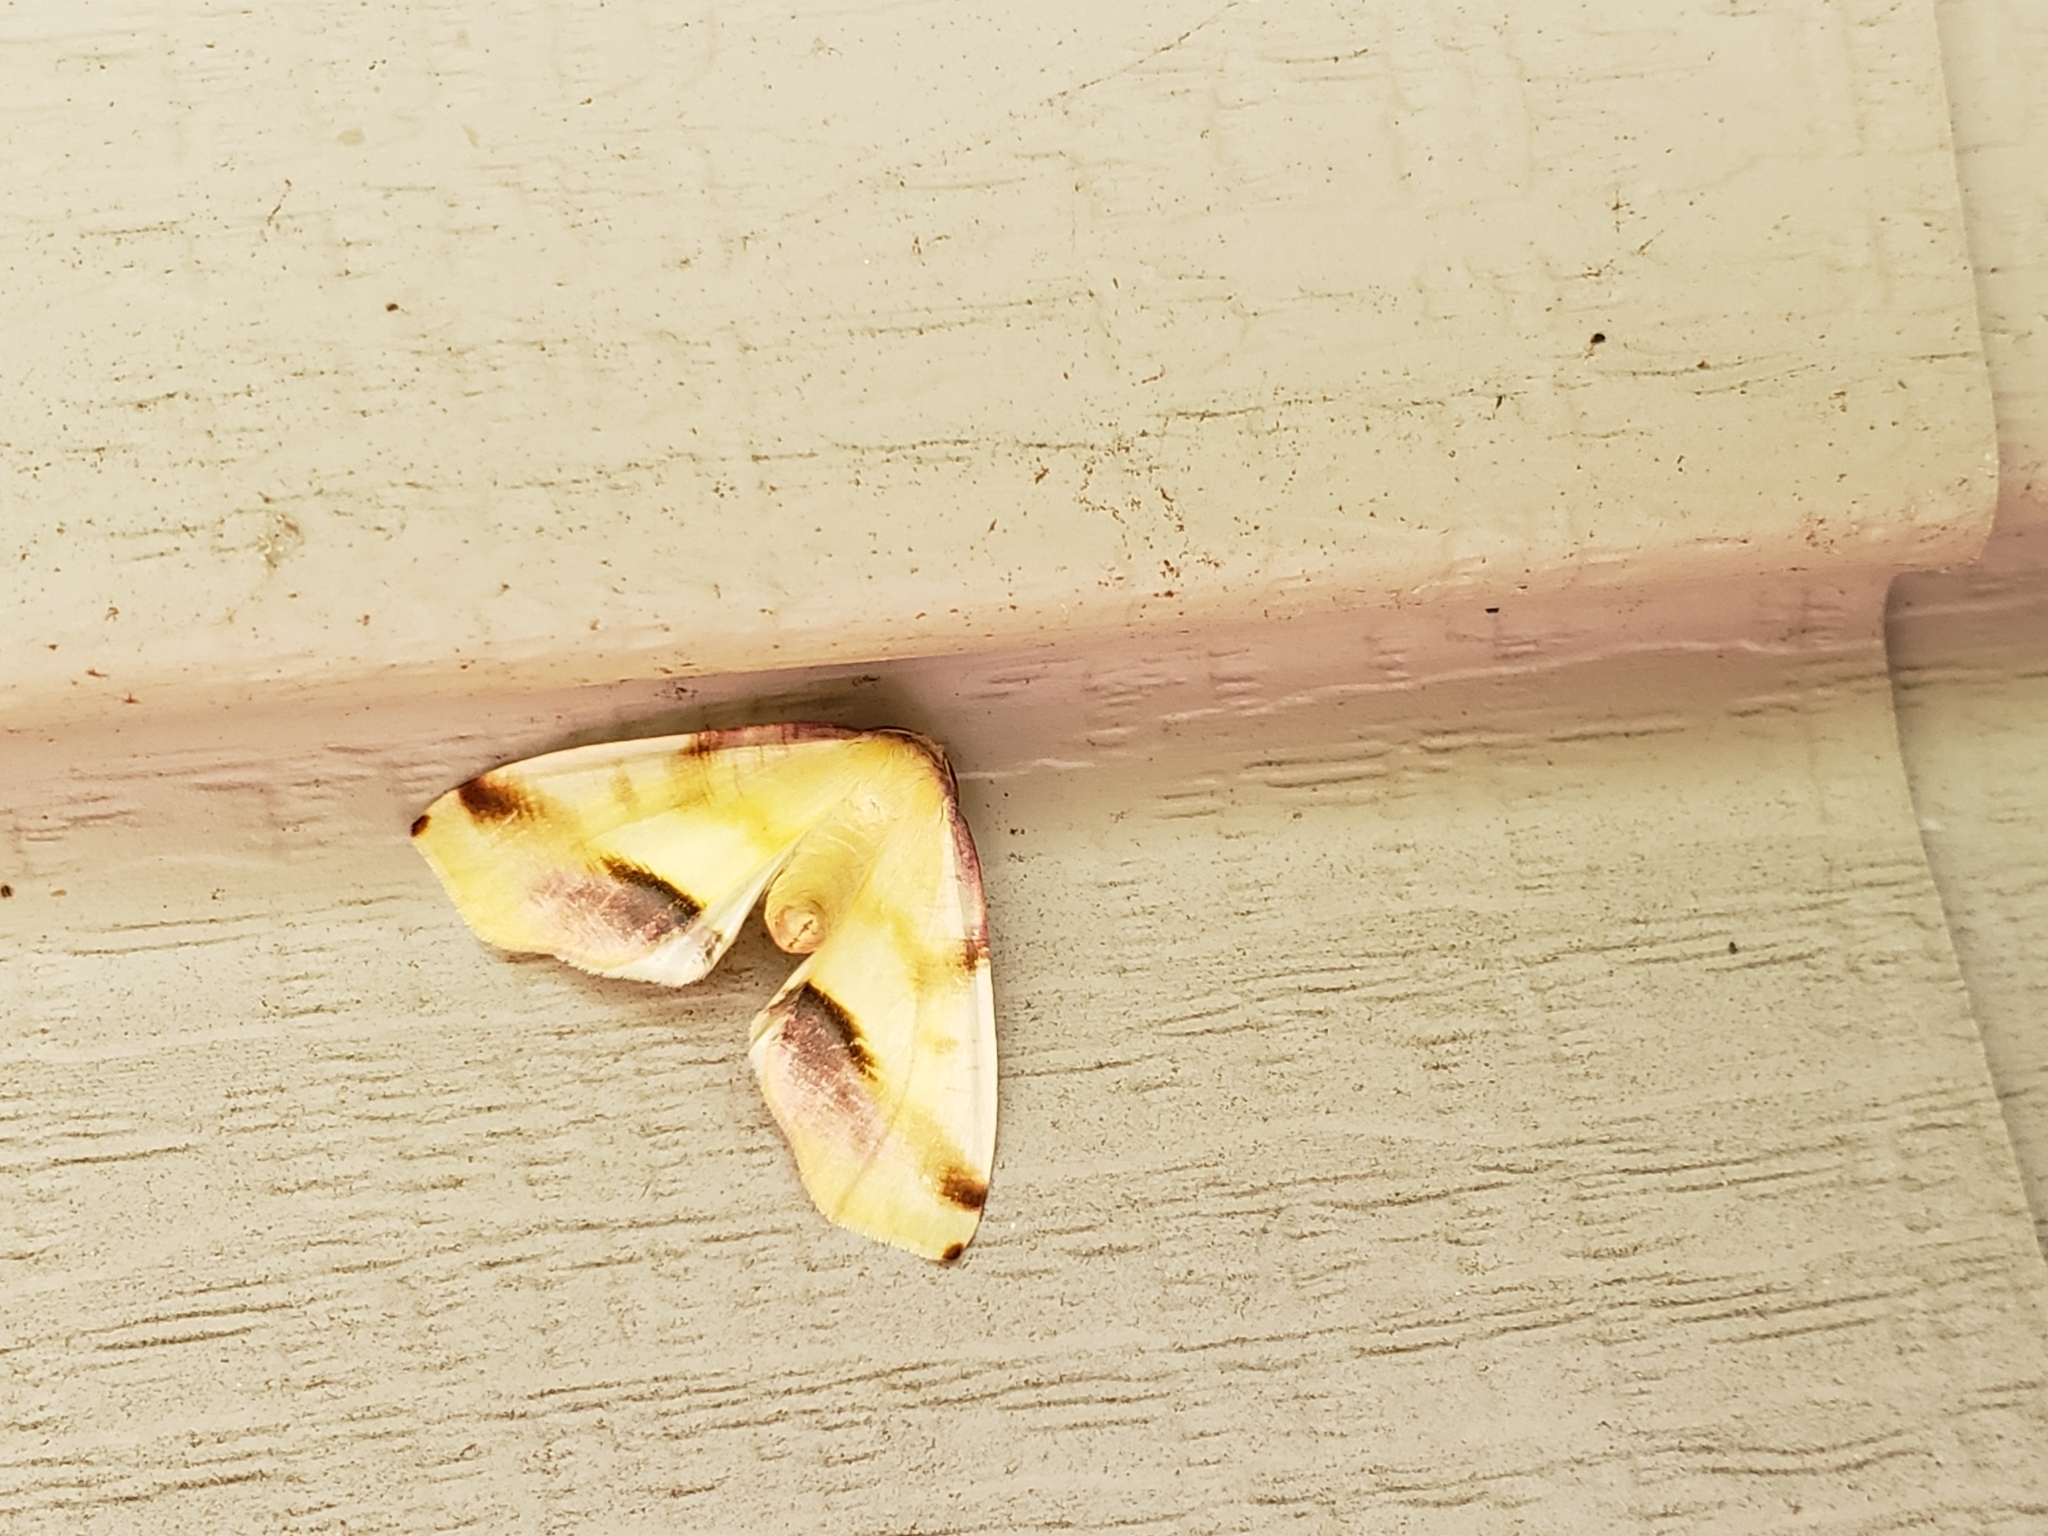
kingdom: Animalia
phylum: Arthropoda
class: Insecta
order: Lepidoptera
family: Geometridae
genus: Plagodis
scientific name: Plagodis serinaria
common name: Lemon plagodis
